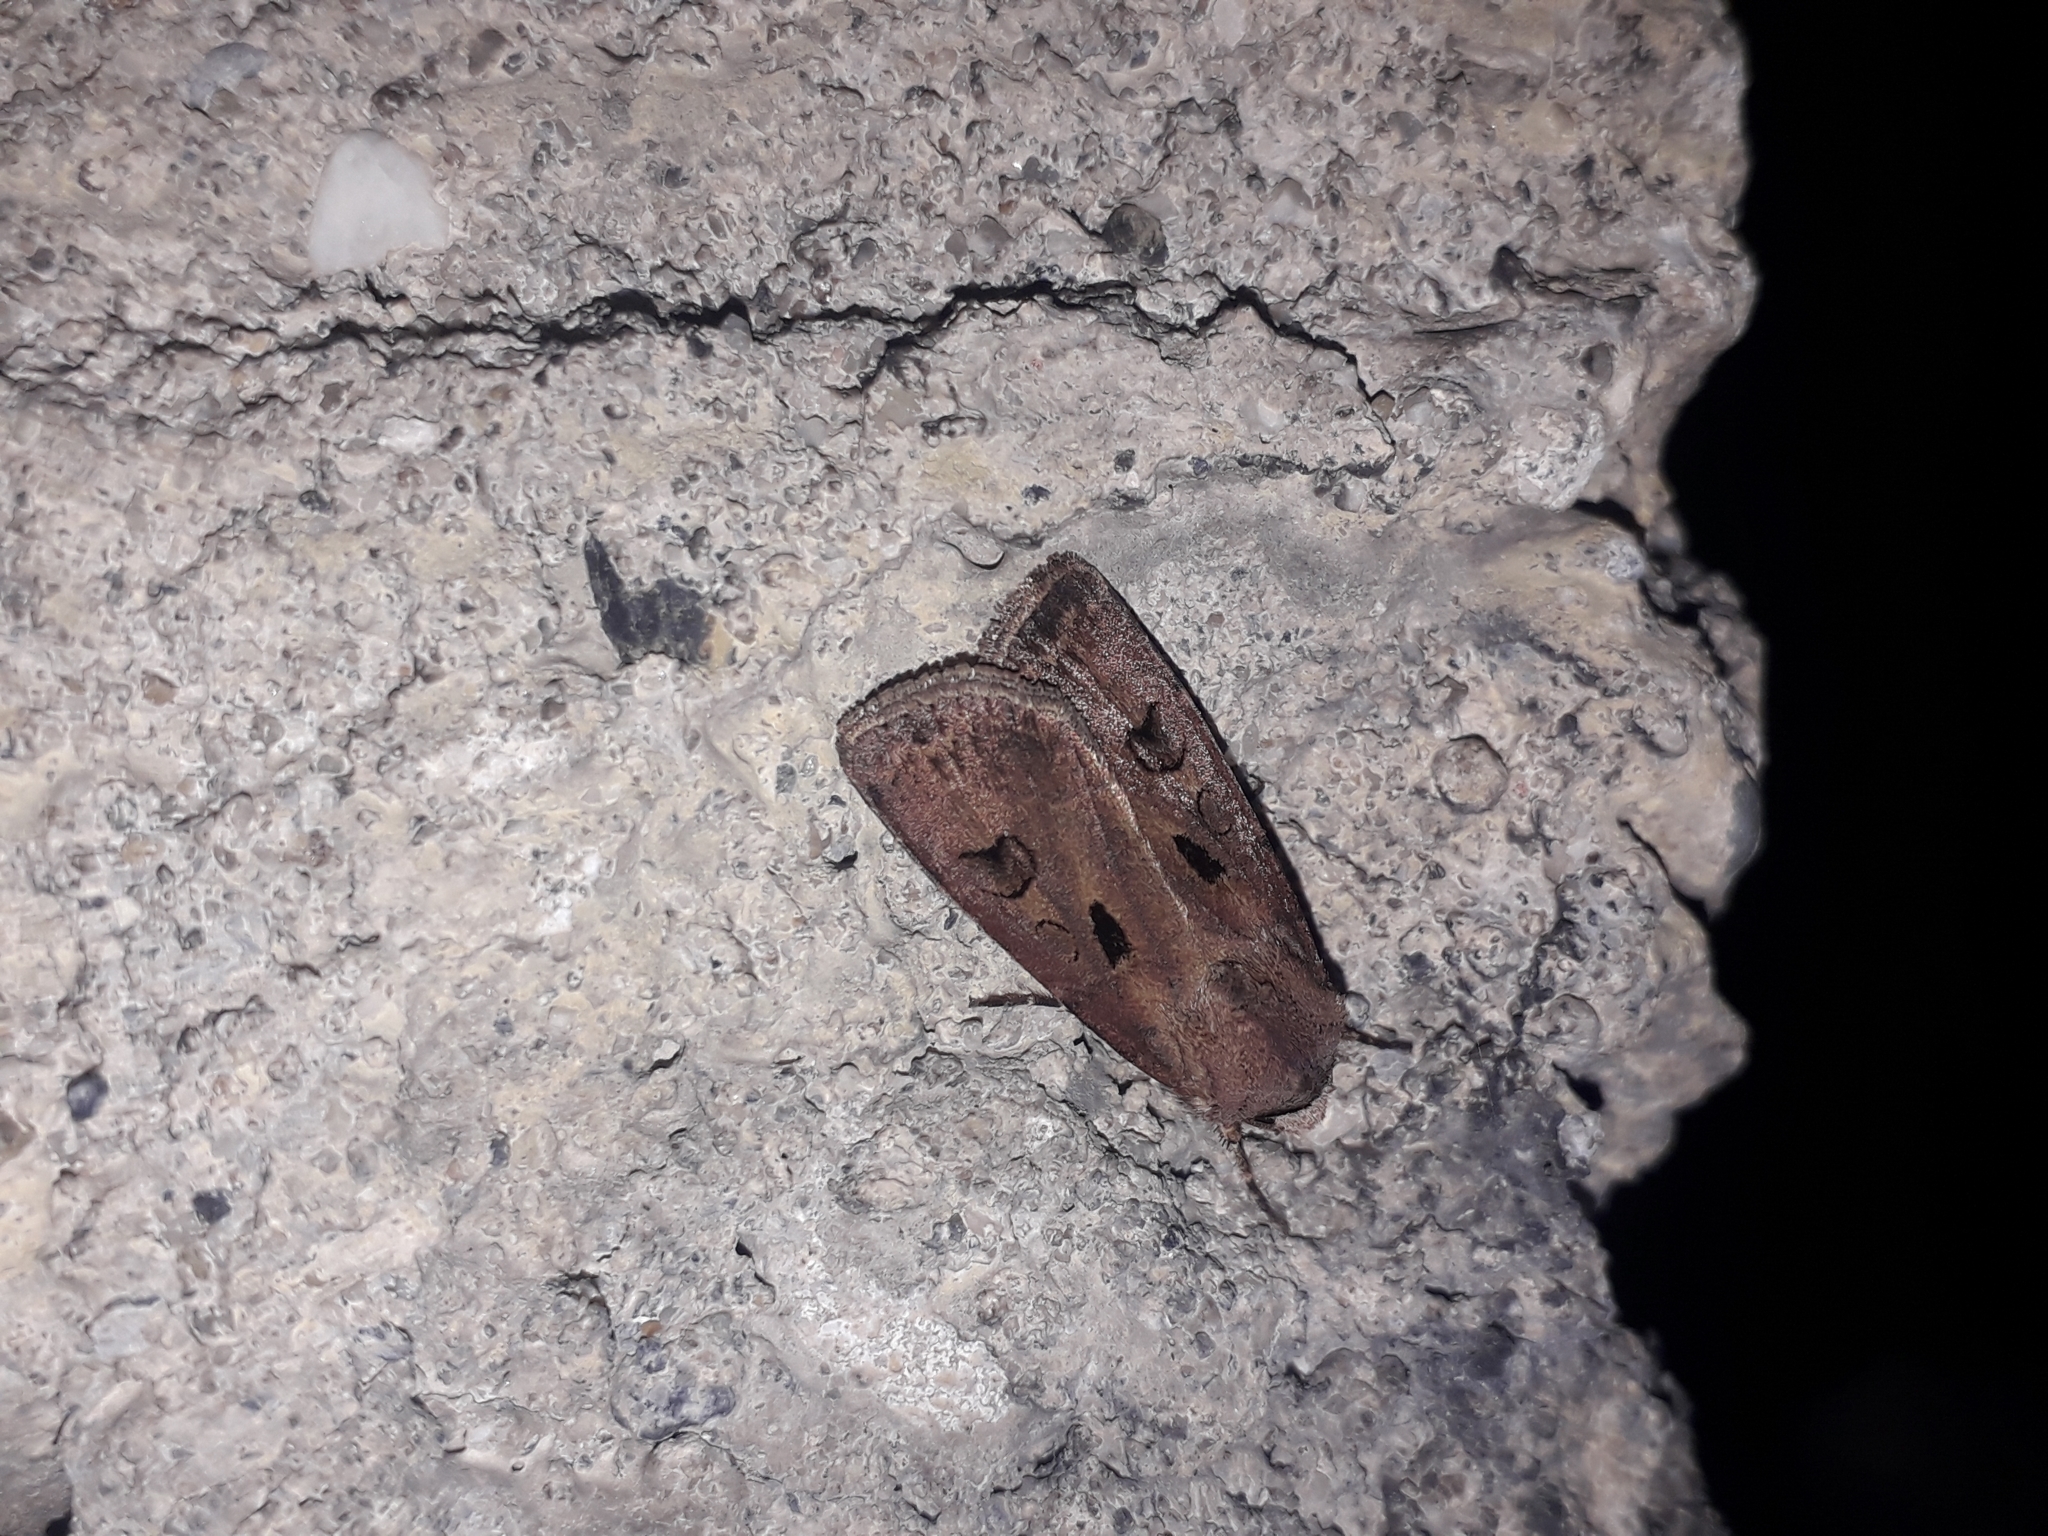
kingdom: Animalia
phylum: Arthropoda
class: Insecta
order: Lepidoptera
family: Noctuidae
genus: Agrotis
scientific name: Agrotis exclamationis
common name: Heart and dart
